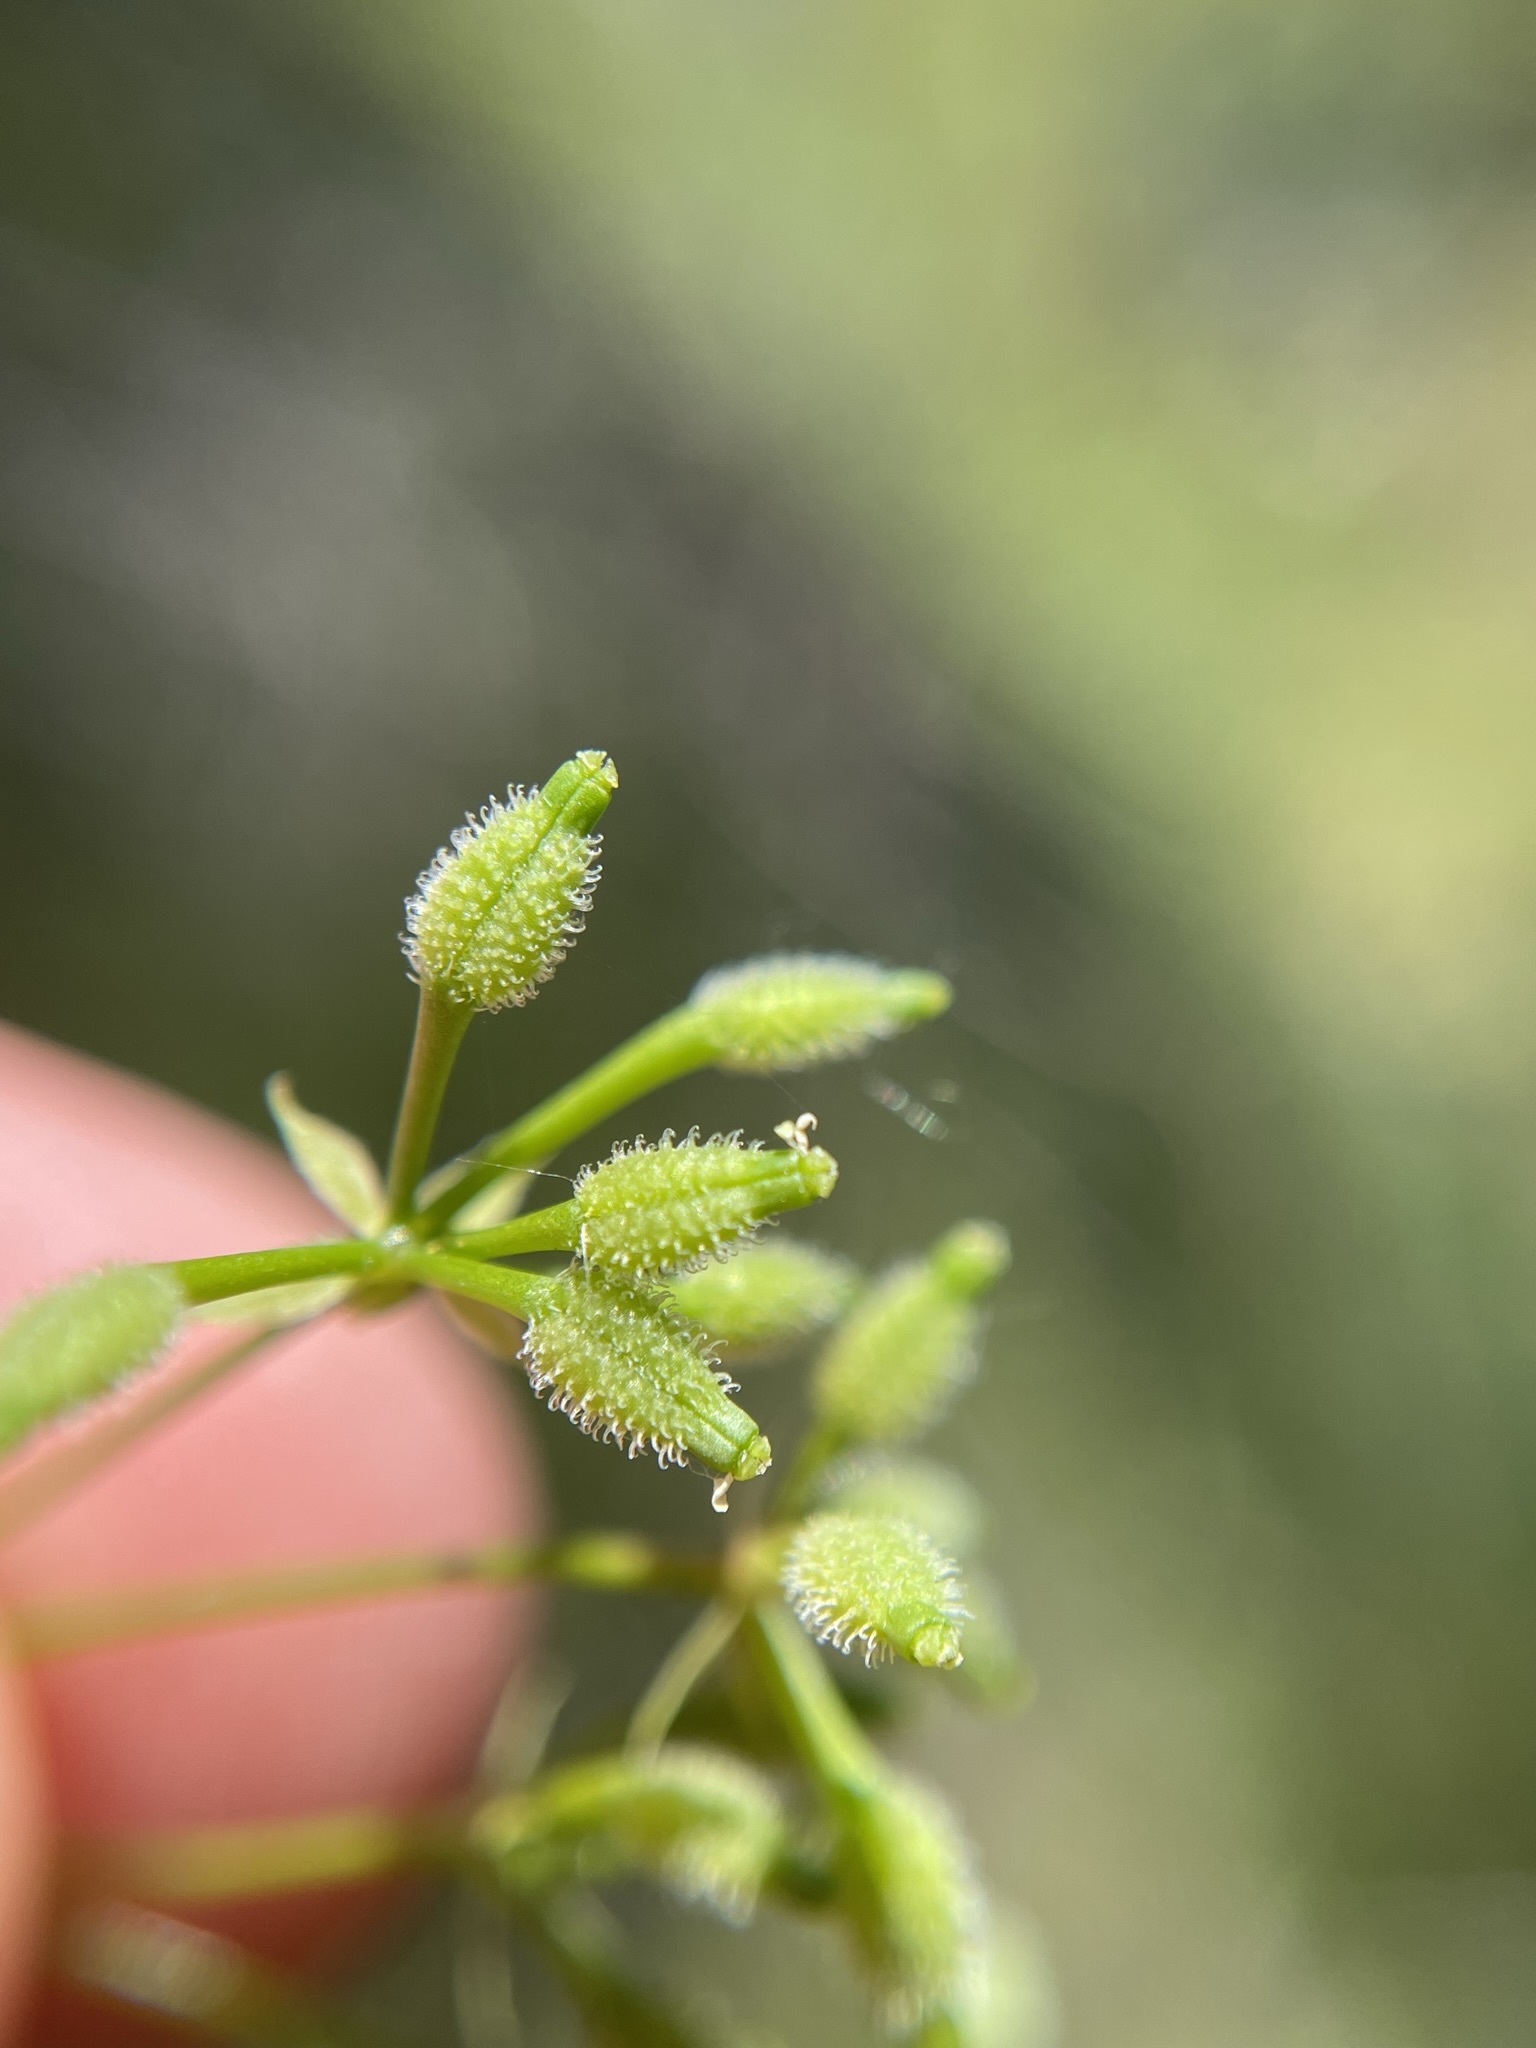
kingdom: Plantae
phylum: Tracheophyta
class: Magnoliopsida
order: Apiales
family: Apiaceae
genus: Anthriscus
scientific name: Anthriscus caucalis
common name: Bur chervil
